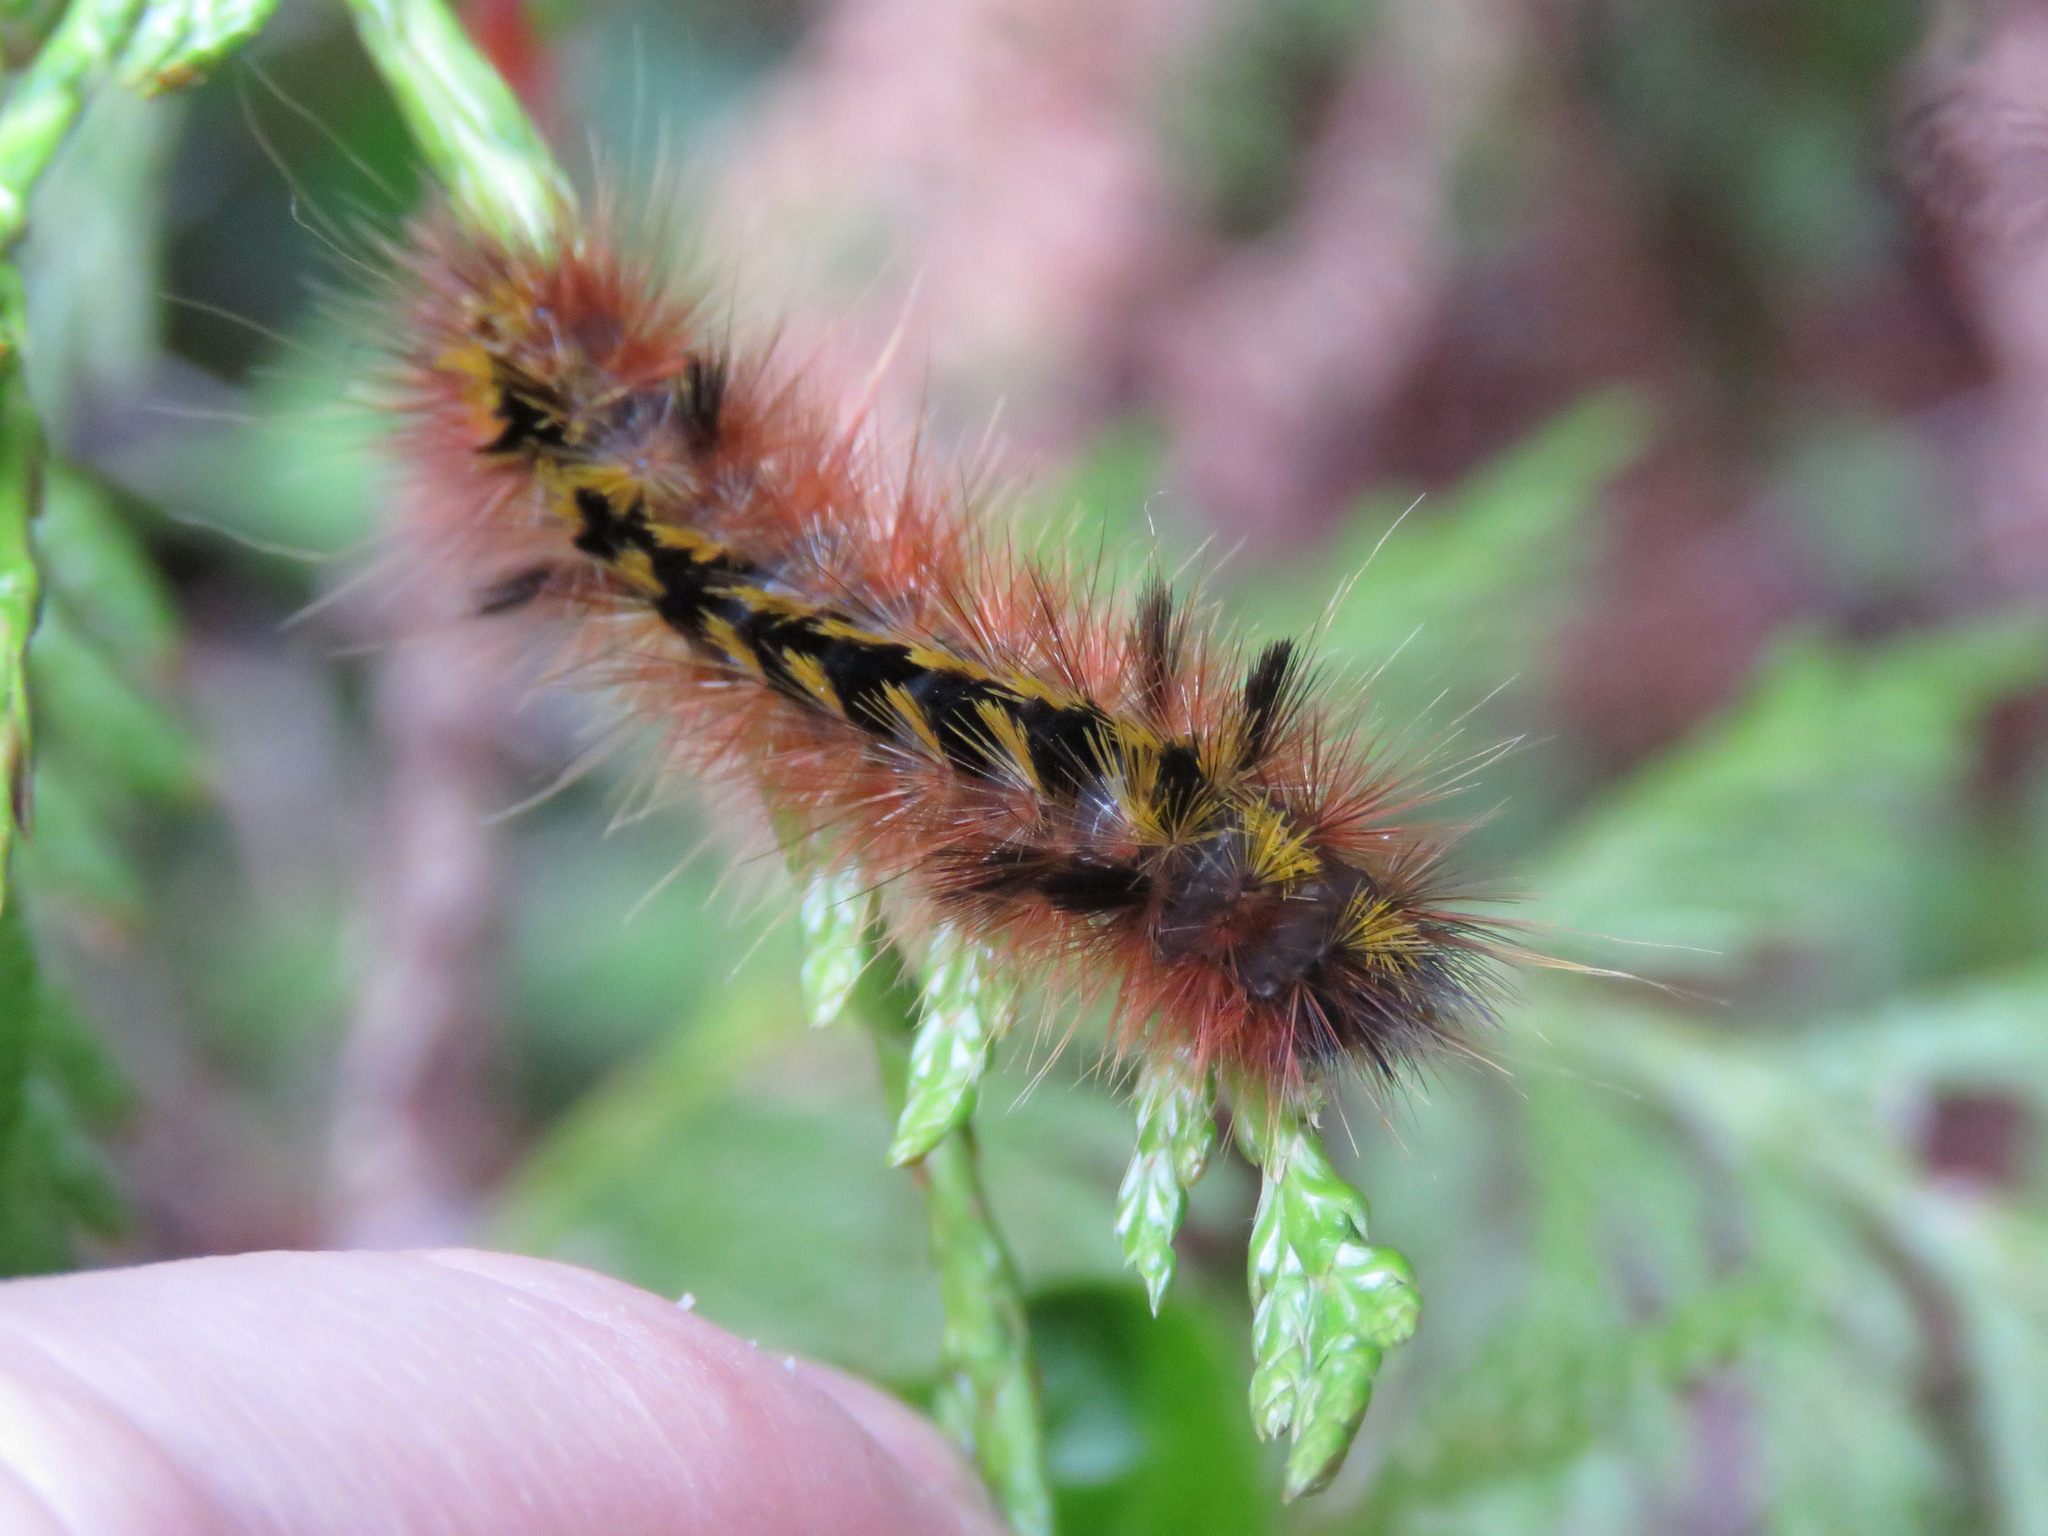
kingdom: Animalia
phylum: Arthropoda
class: Insecta
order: Lepidoptera
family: Erebidae
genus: Lophocampa
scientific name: Lophocampa argentata
